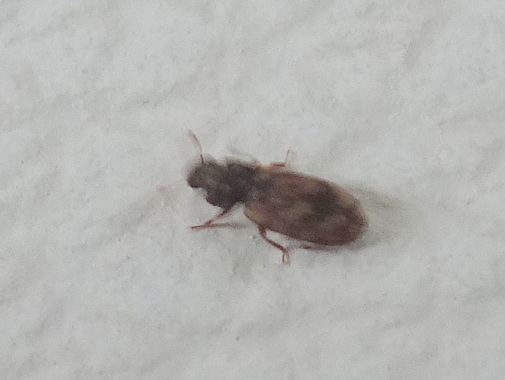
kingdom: Animalia
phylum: Arthropoda
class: Insecta
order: Coleoptera
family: Zopheridae
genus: Synchita
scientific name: Synchita undata
